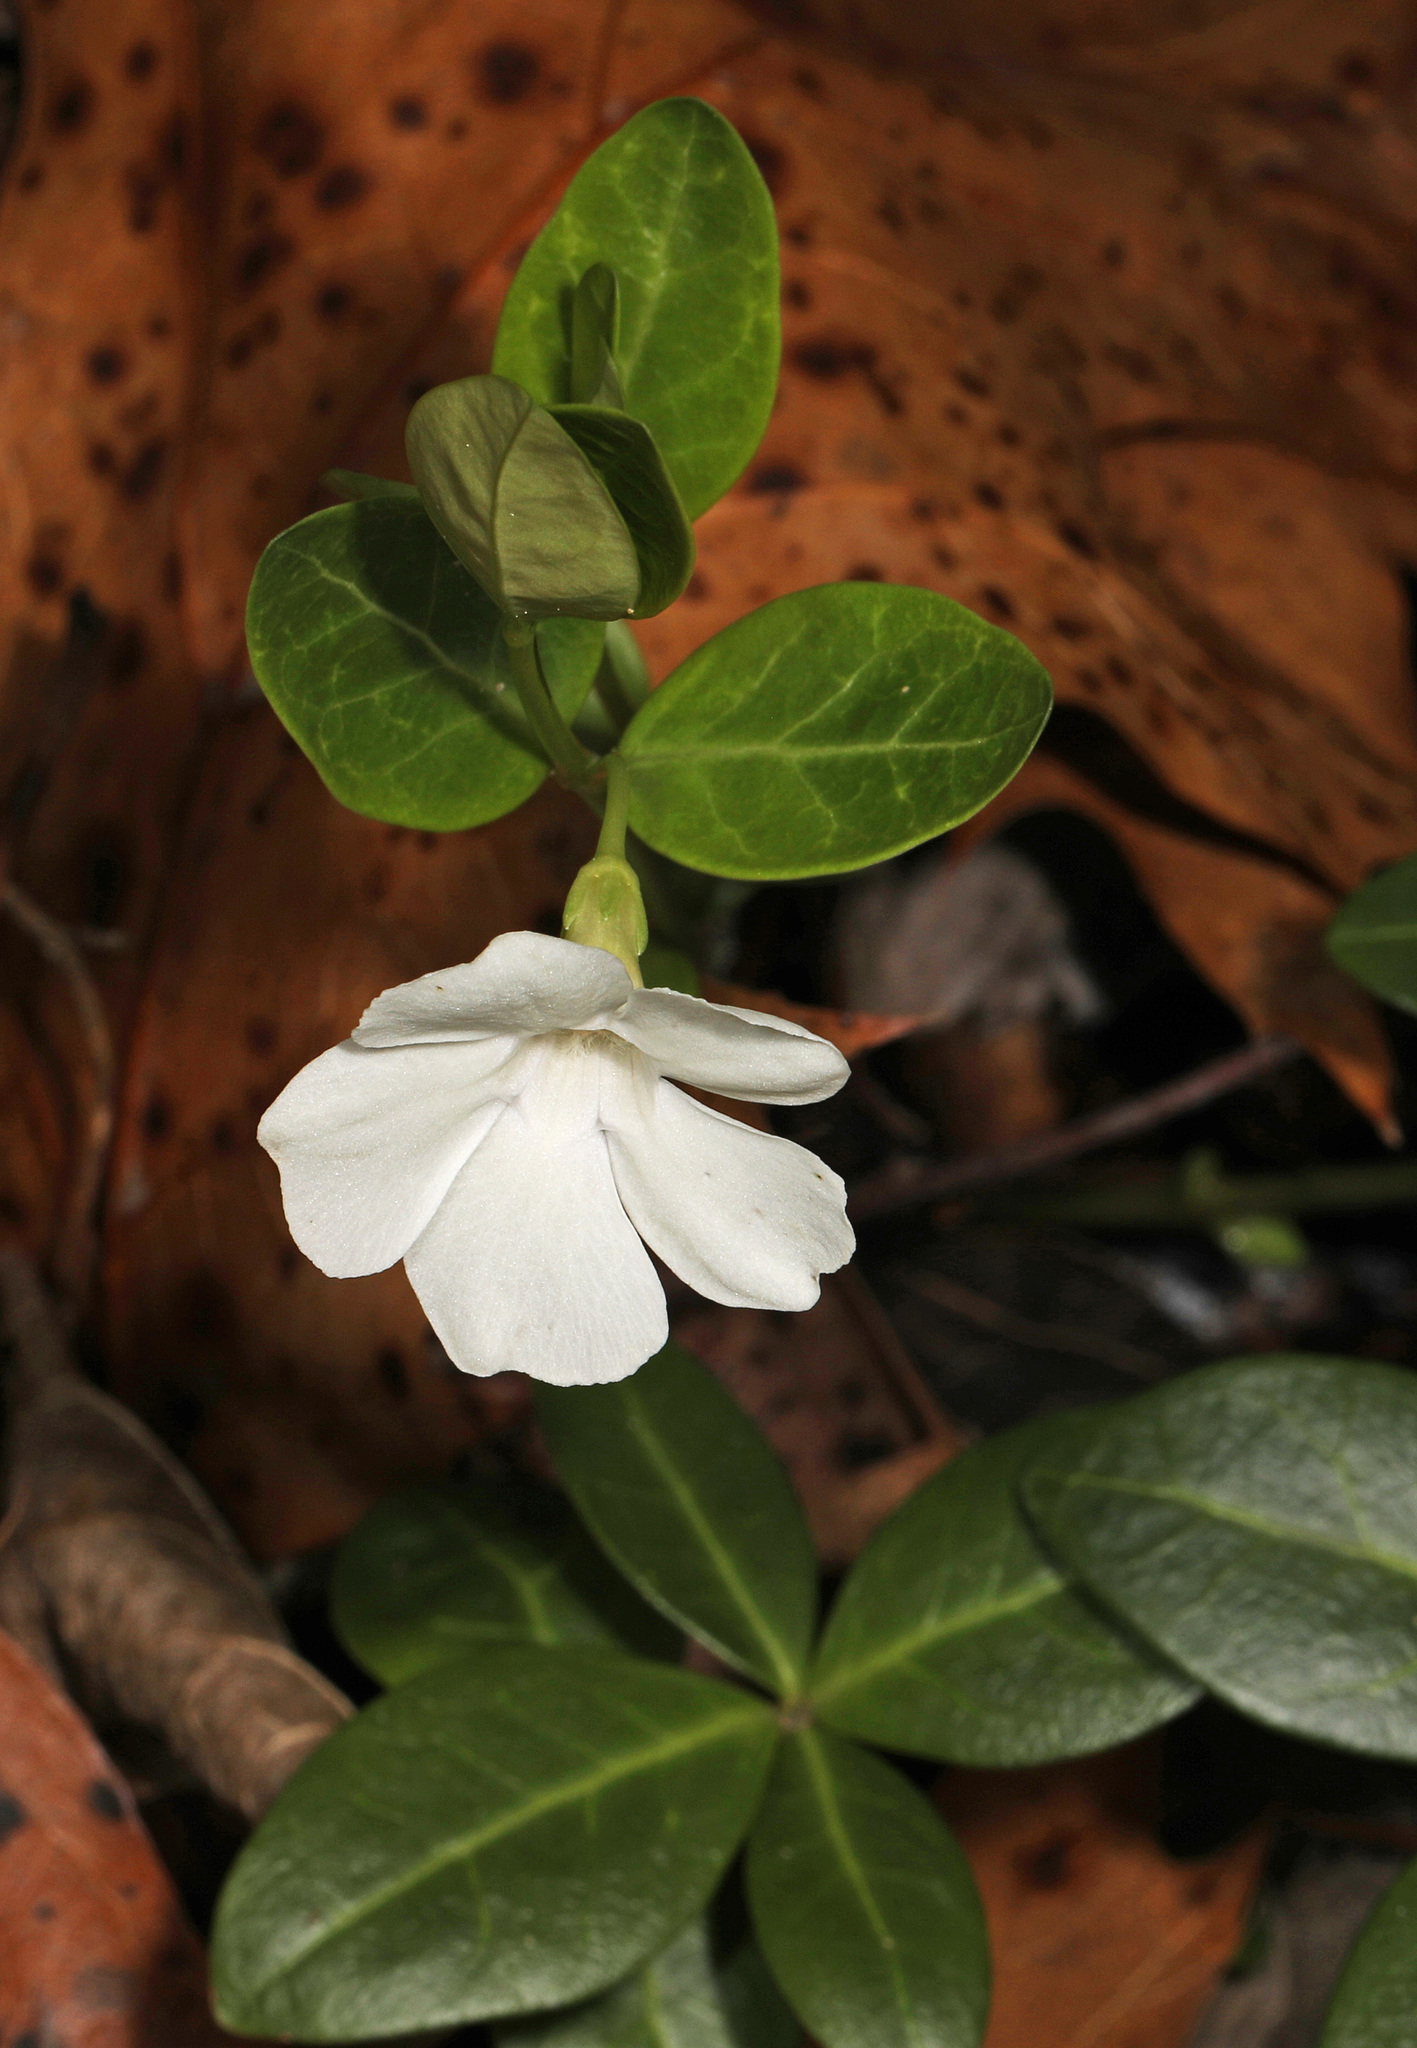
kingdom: Plantae
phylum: Tracheophyta
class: Magnoliopsida
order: Gentianales
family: Apocynaceae
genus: Vinca
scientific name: Vinca minor
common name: Lesser periwinkle
